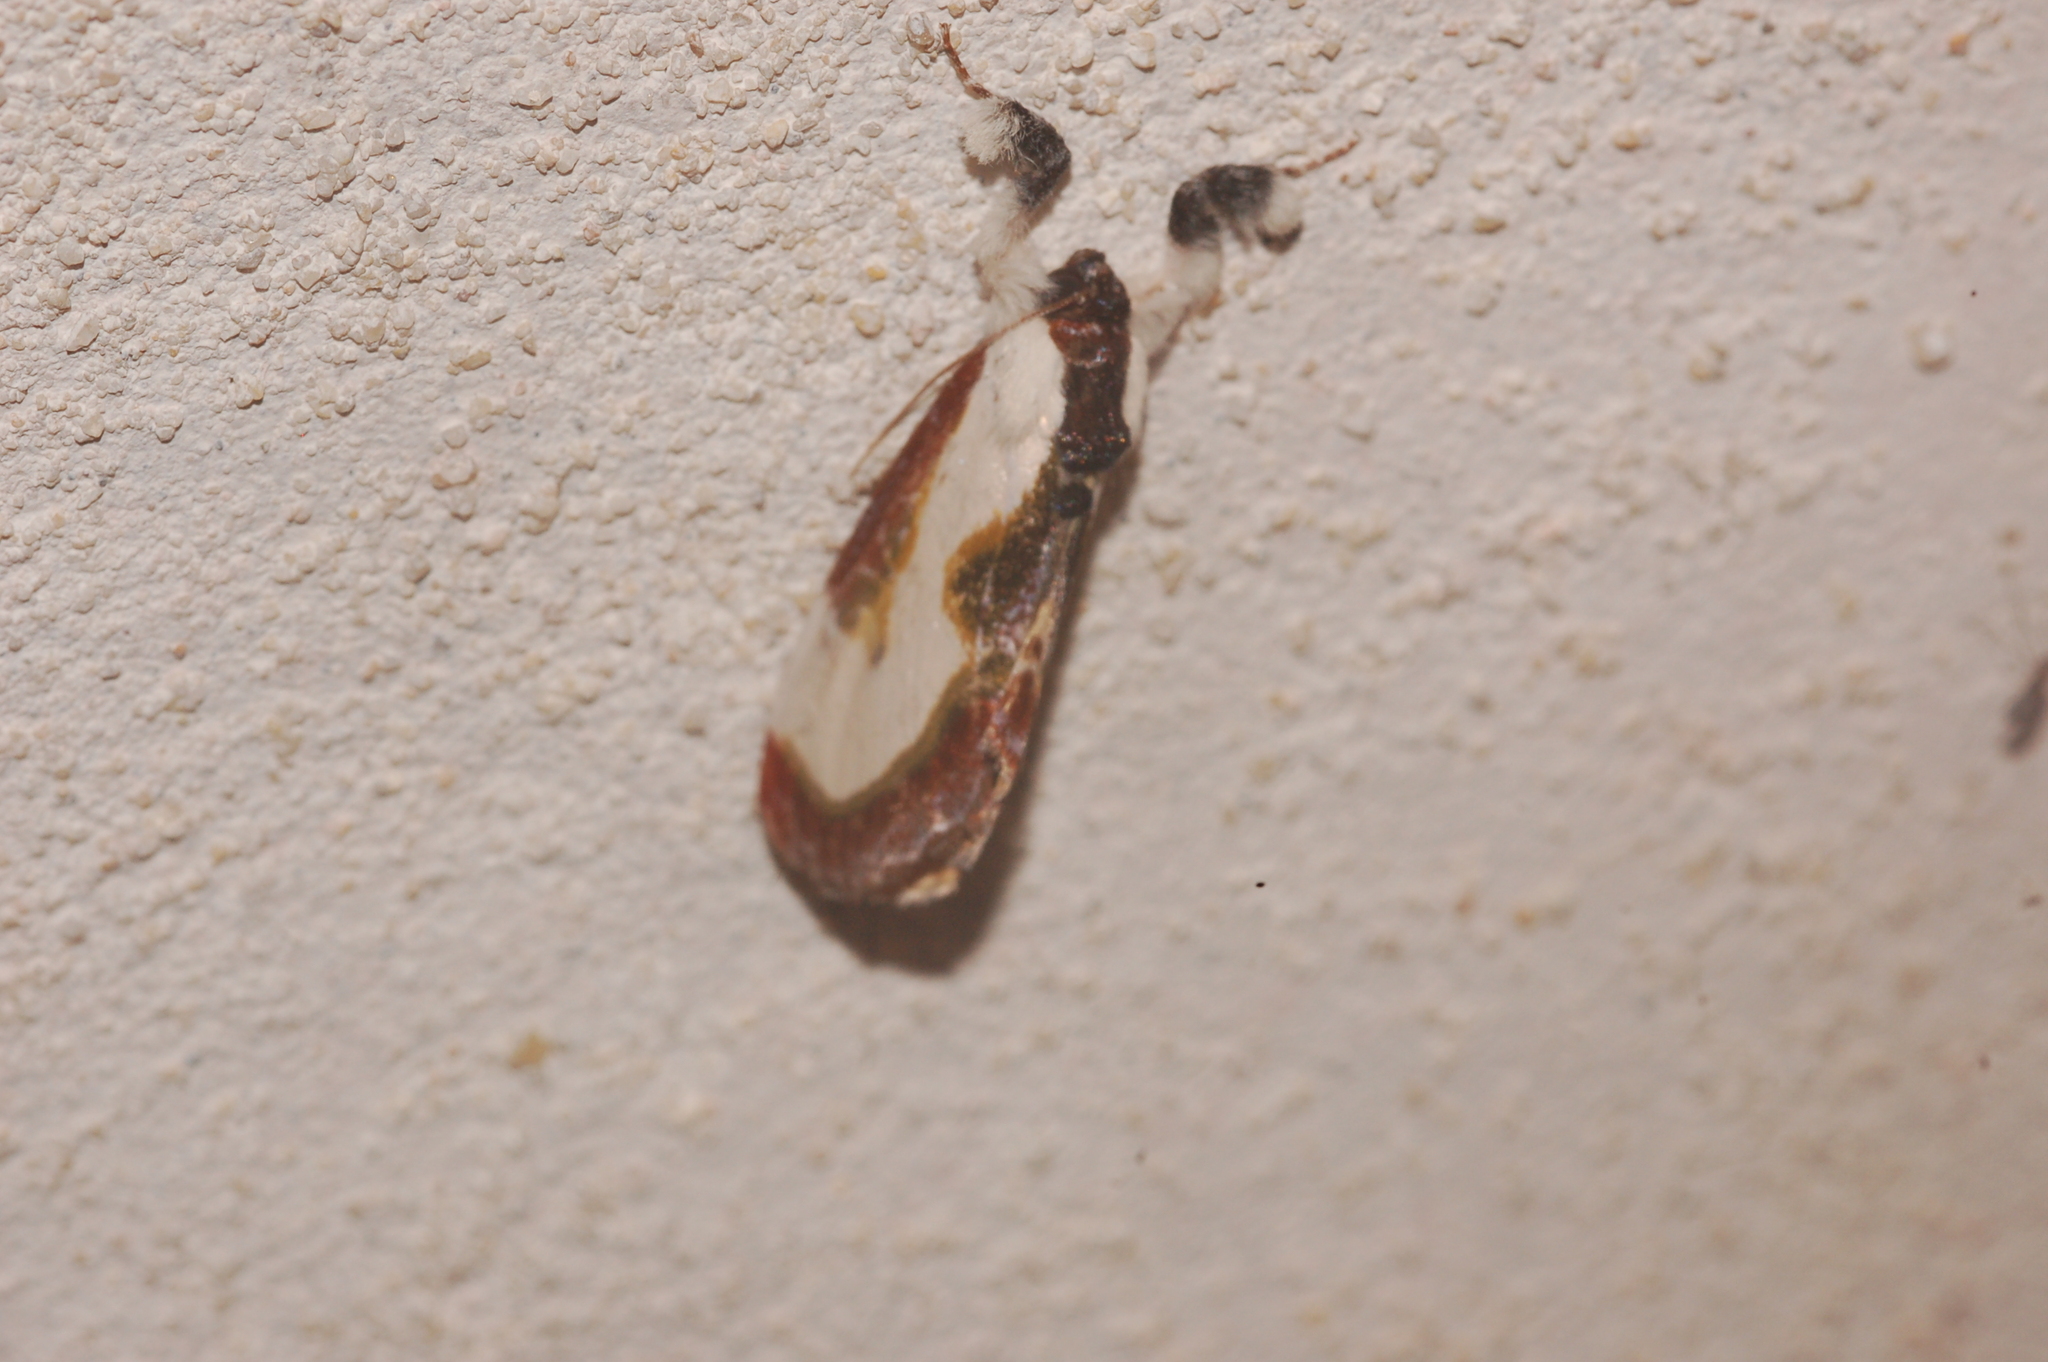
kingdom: Animalia
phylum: Arthropoda
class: Insecta
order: Lepidoptera
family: Noctuidae
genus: Eudryas
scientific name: Eudryas grata
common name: Beautiful wood-nymph
